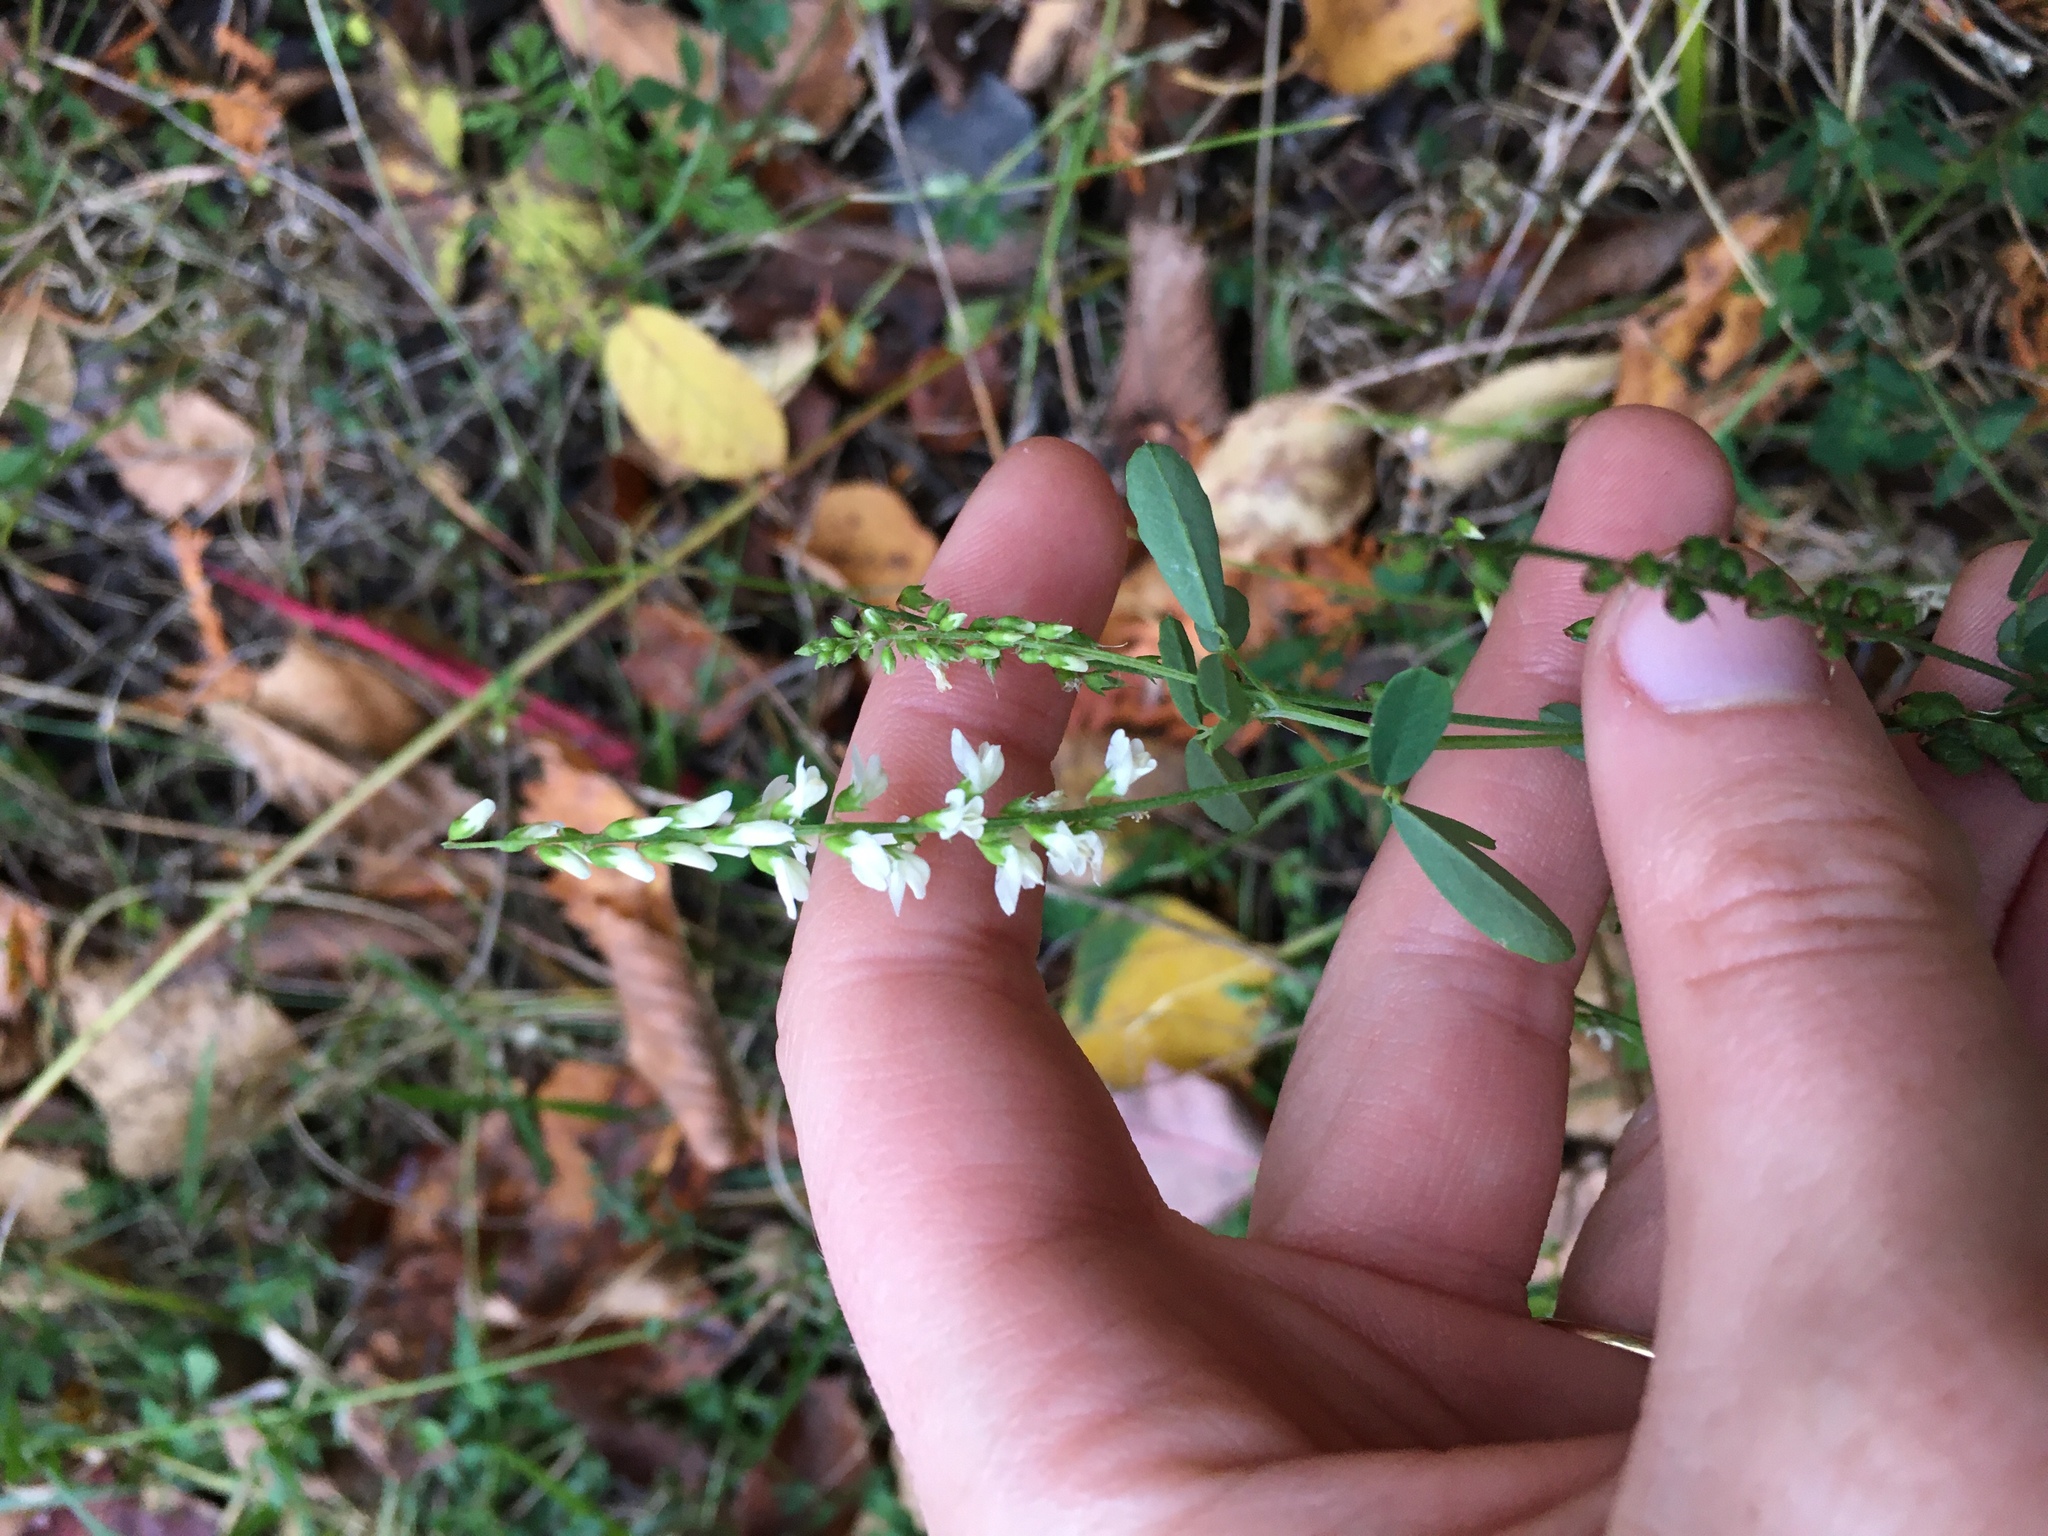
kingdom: Plantae
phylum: Tracheophyta
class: Magnoliopsida
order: Fabales
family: Fabaceae
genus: Melilotus
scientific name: Melilotus albus
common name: White melilot
